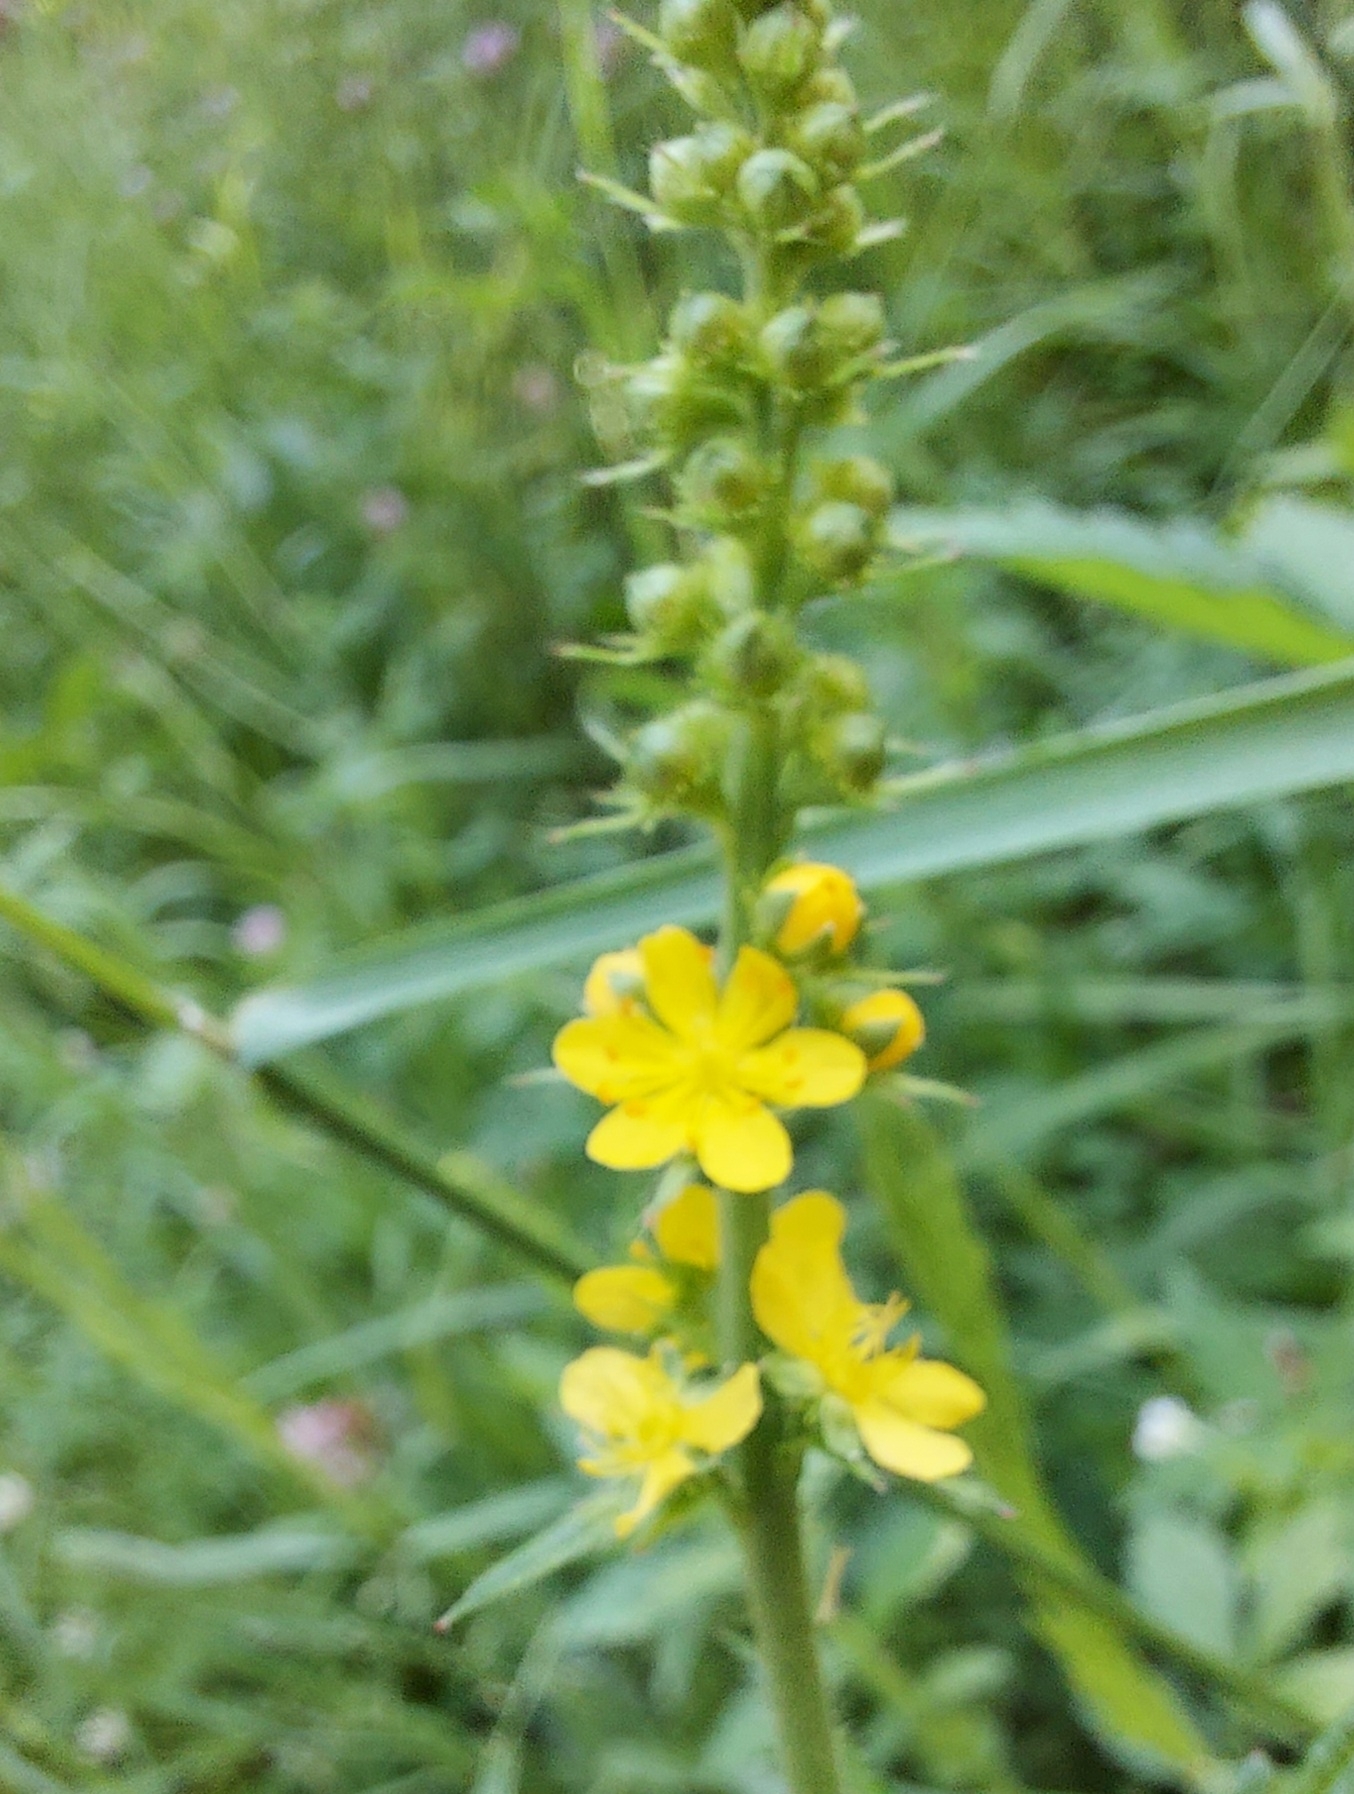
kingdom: Plantae
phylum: Tracheophyta
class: Magnoliopsida
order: Rosales
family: Rosaceae
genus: Agrimonia
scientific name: Agrimonia pilosa
